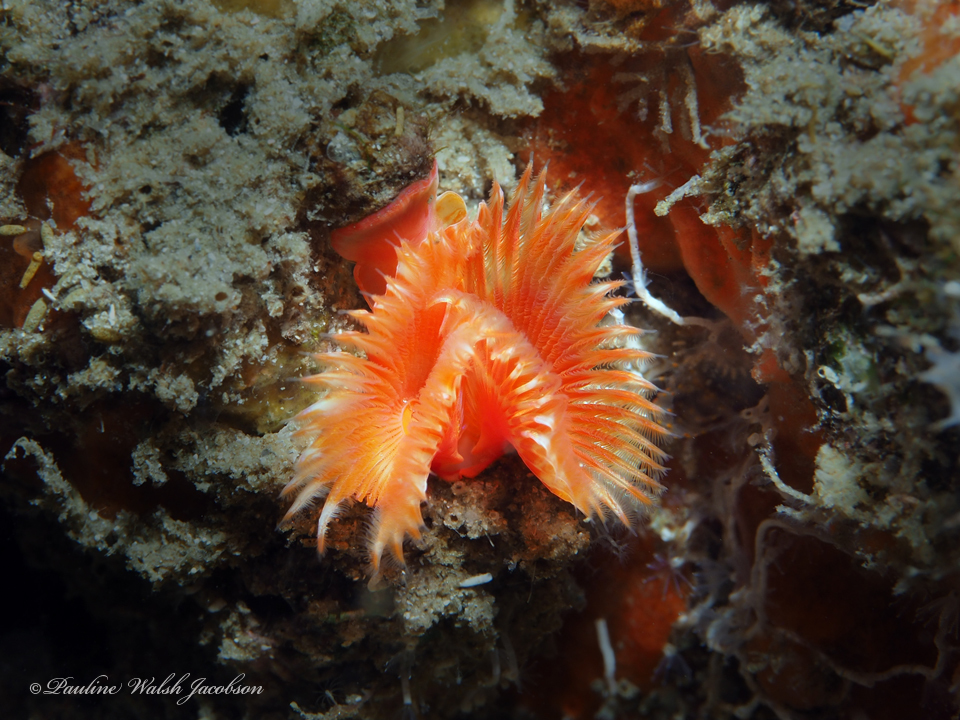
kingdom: Animalia
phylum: Annelida
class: Polychaeta
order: Sabellida
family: Serpulidae
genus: Pomatostegus
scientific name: Pomatostegus stellatus
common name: Star tubeworm
